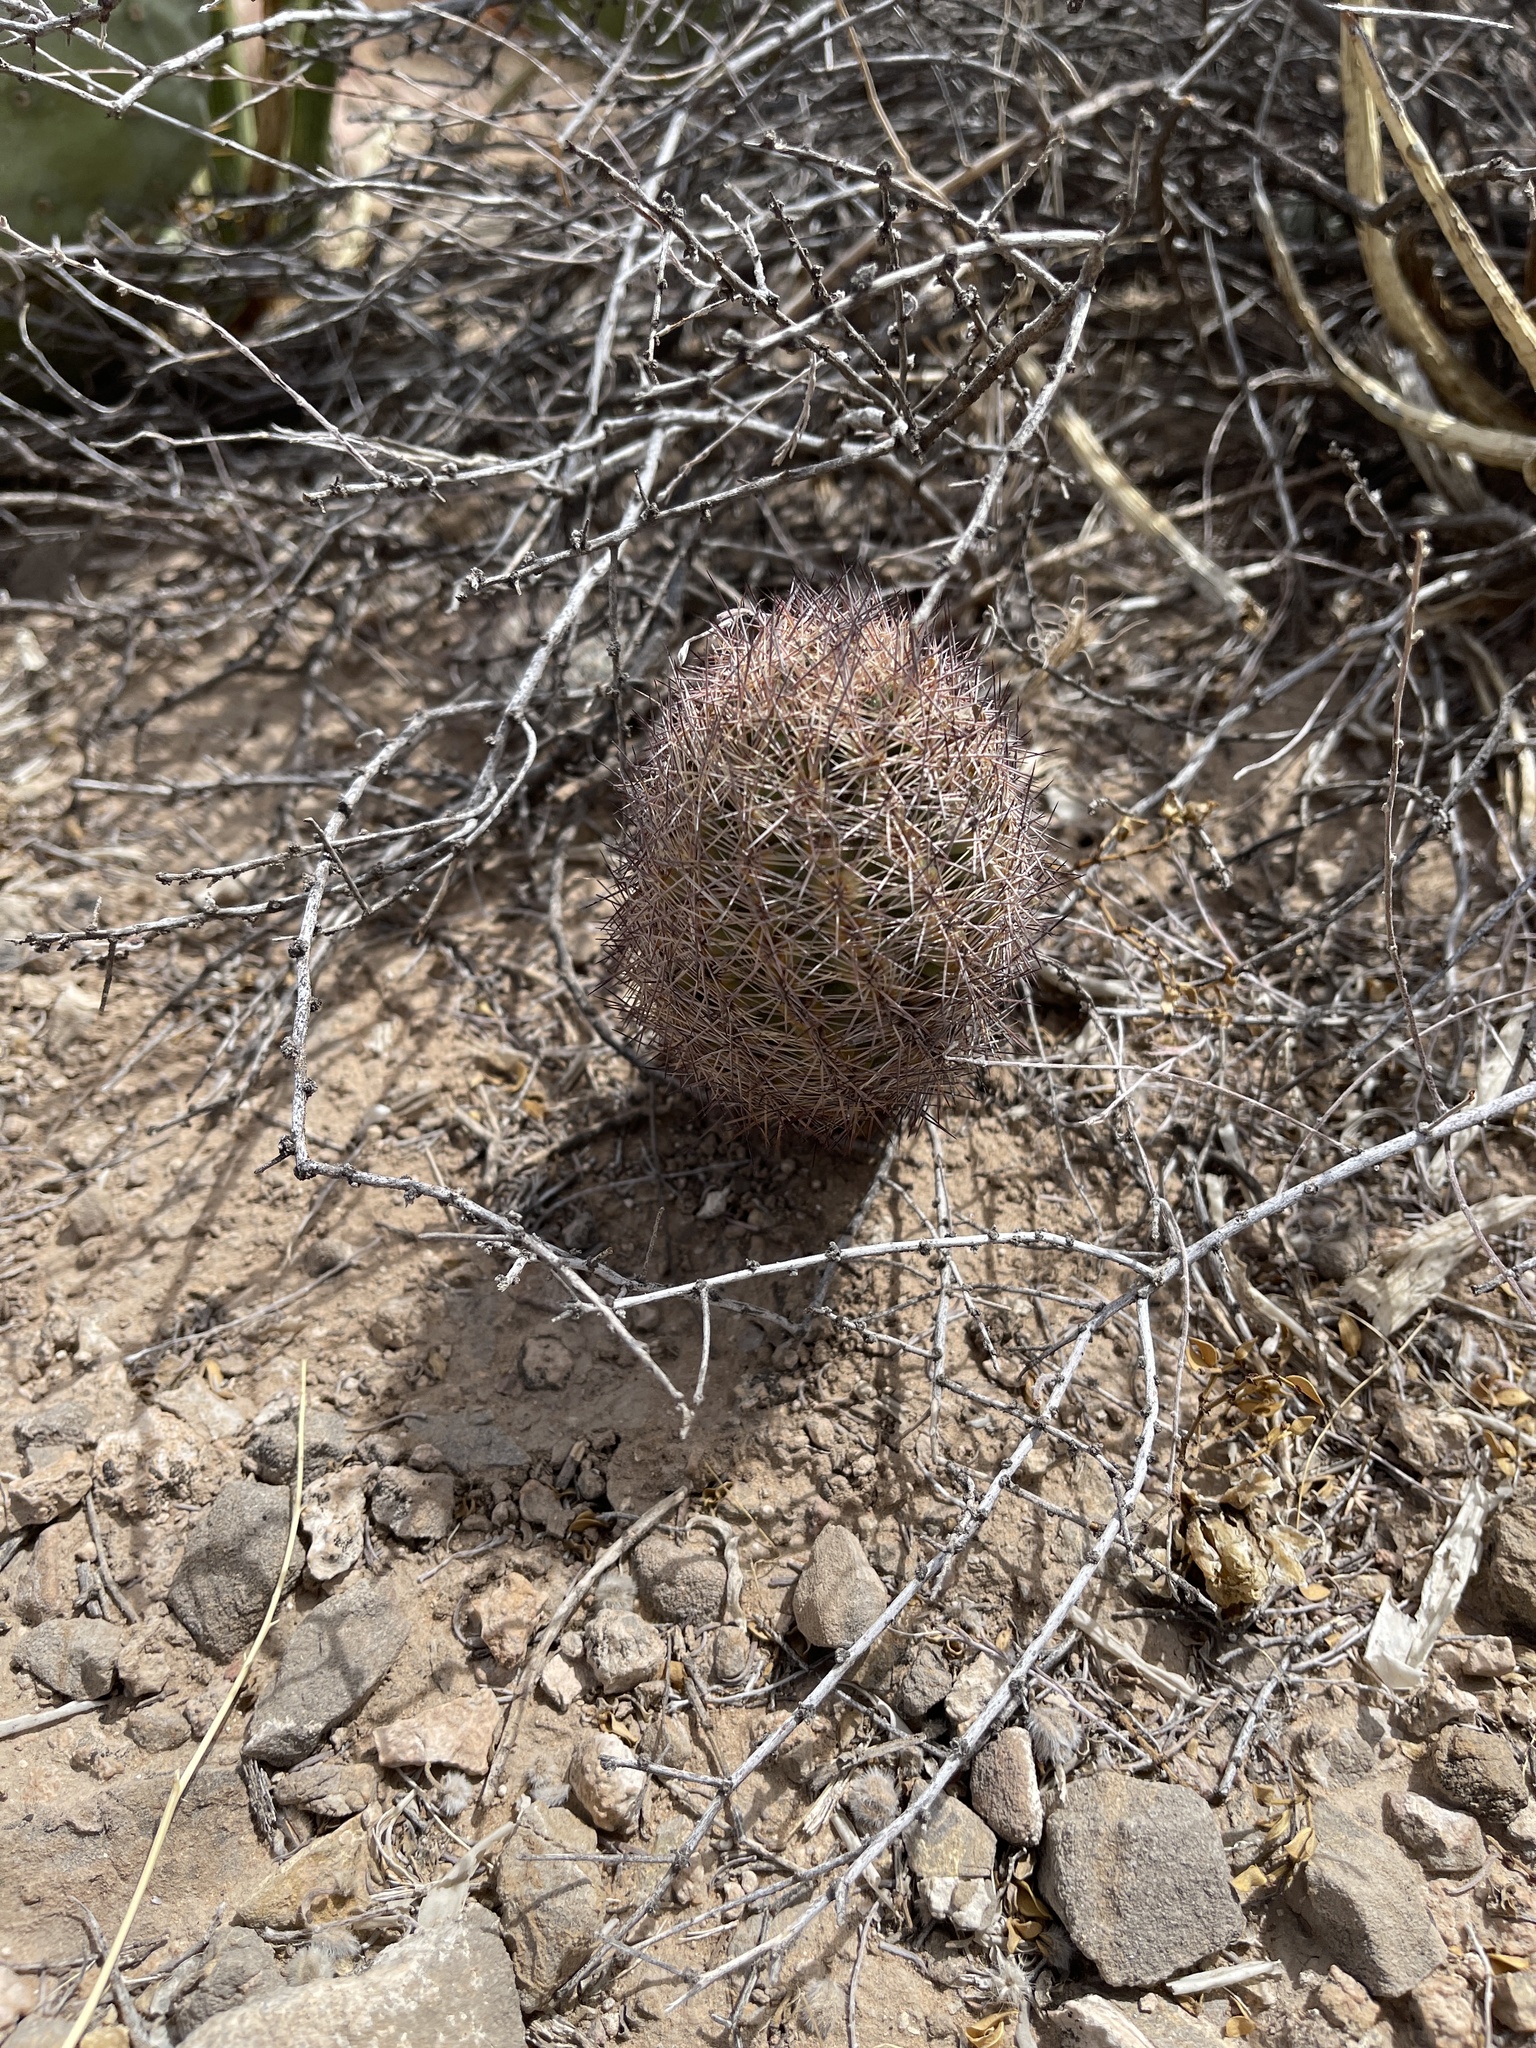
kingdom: Plantae
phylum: Tracheophyta
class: Magnoliopsida
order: Caryophyllales
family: Cactaceae
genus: Sclerocactus
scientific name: Sclerocactus intertextus
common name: White fish-hook cactus
